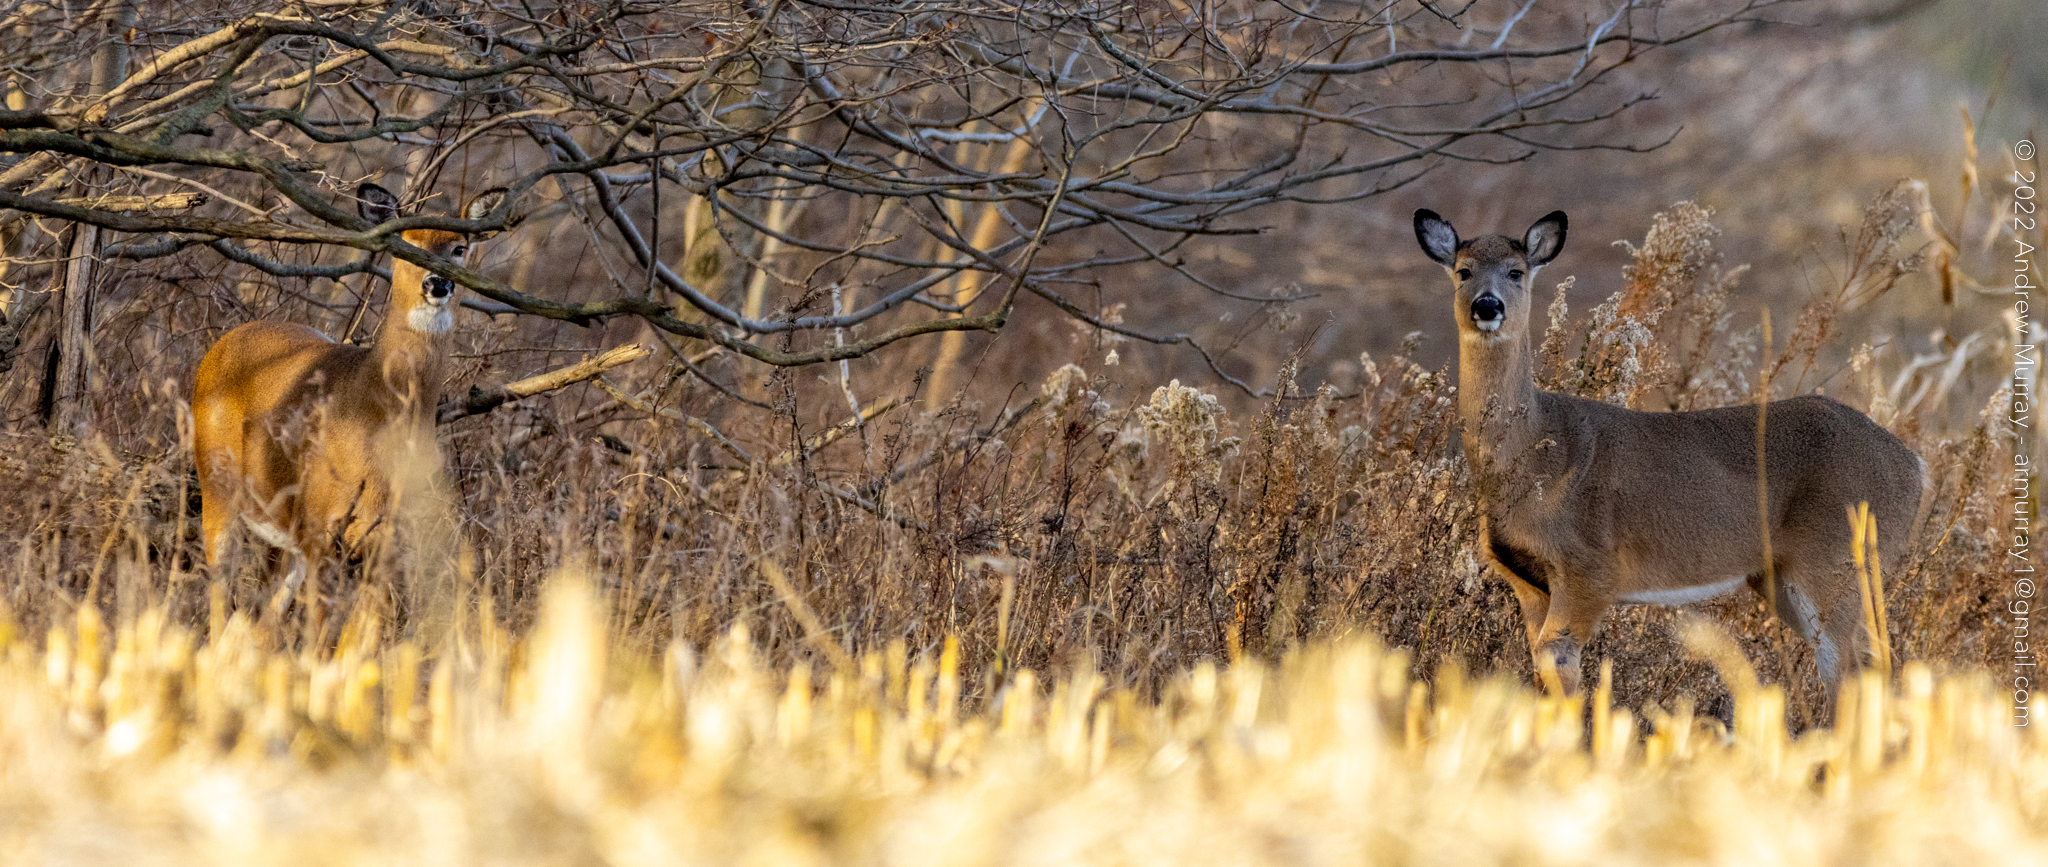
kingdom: Animalia
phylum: Chordata
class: Mammalia
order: Artiodactyla
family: Cervidae
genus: Odocoileus
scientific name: Odocoileus virginianus
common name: White-tailed deer
